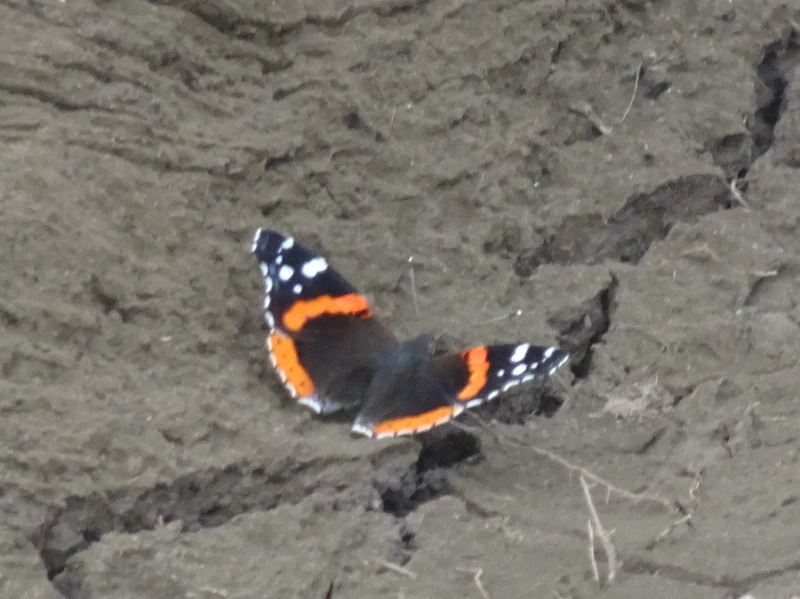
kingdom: Animalia
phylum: Arthropoda
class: Insecta
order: Lepidoptera
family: Nymphalidae
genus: Vanessa
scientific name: Vanessa atalanta
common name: Red admiral
